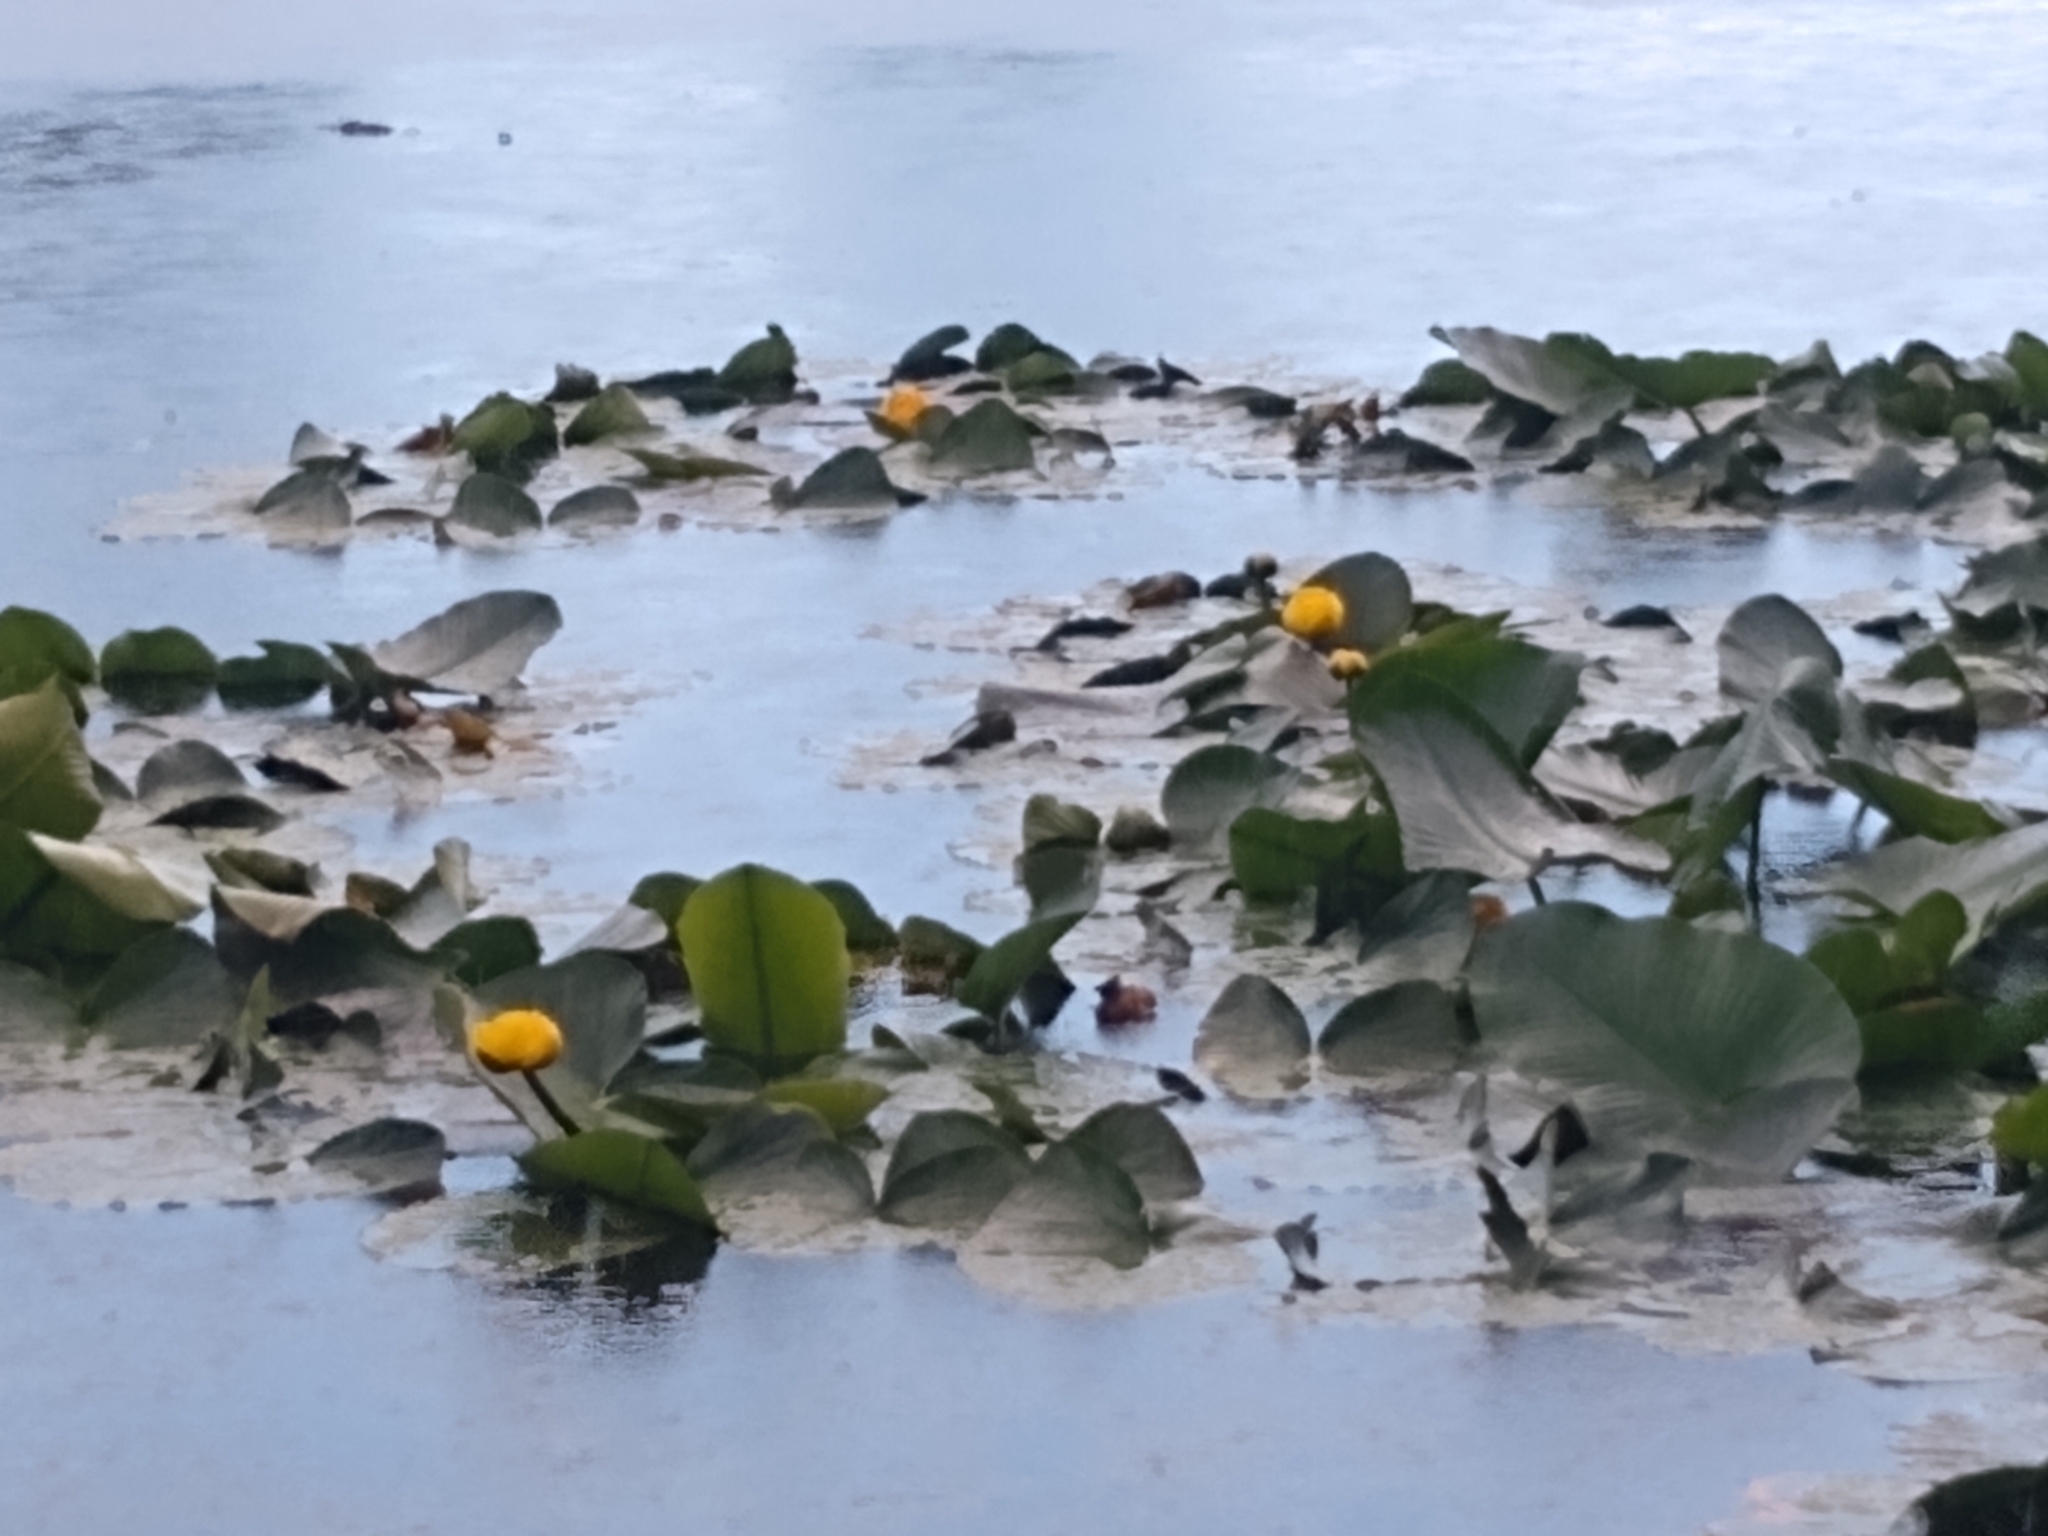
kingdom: Plantae
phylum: Tracheophyta
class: Magnoliopsida
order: Nymphaeales
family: Nymphaeaceae
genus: Nuphar
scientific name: Nuphar polysepala
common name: Rocky mountain cow-lily
